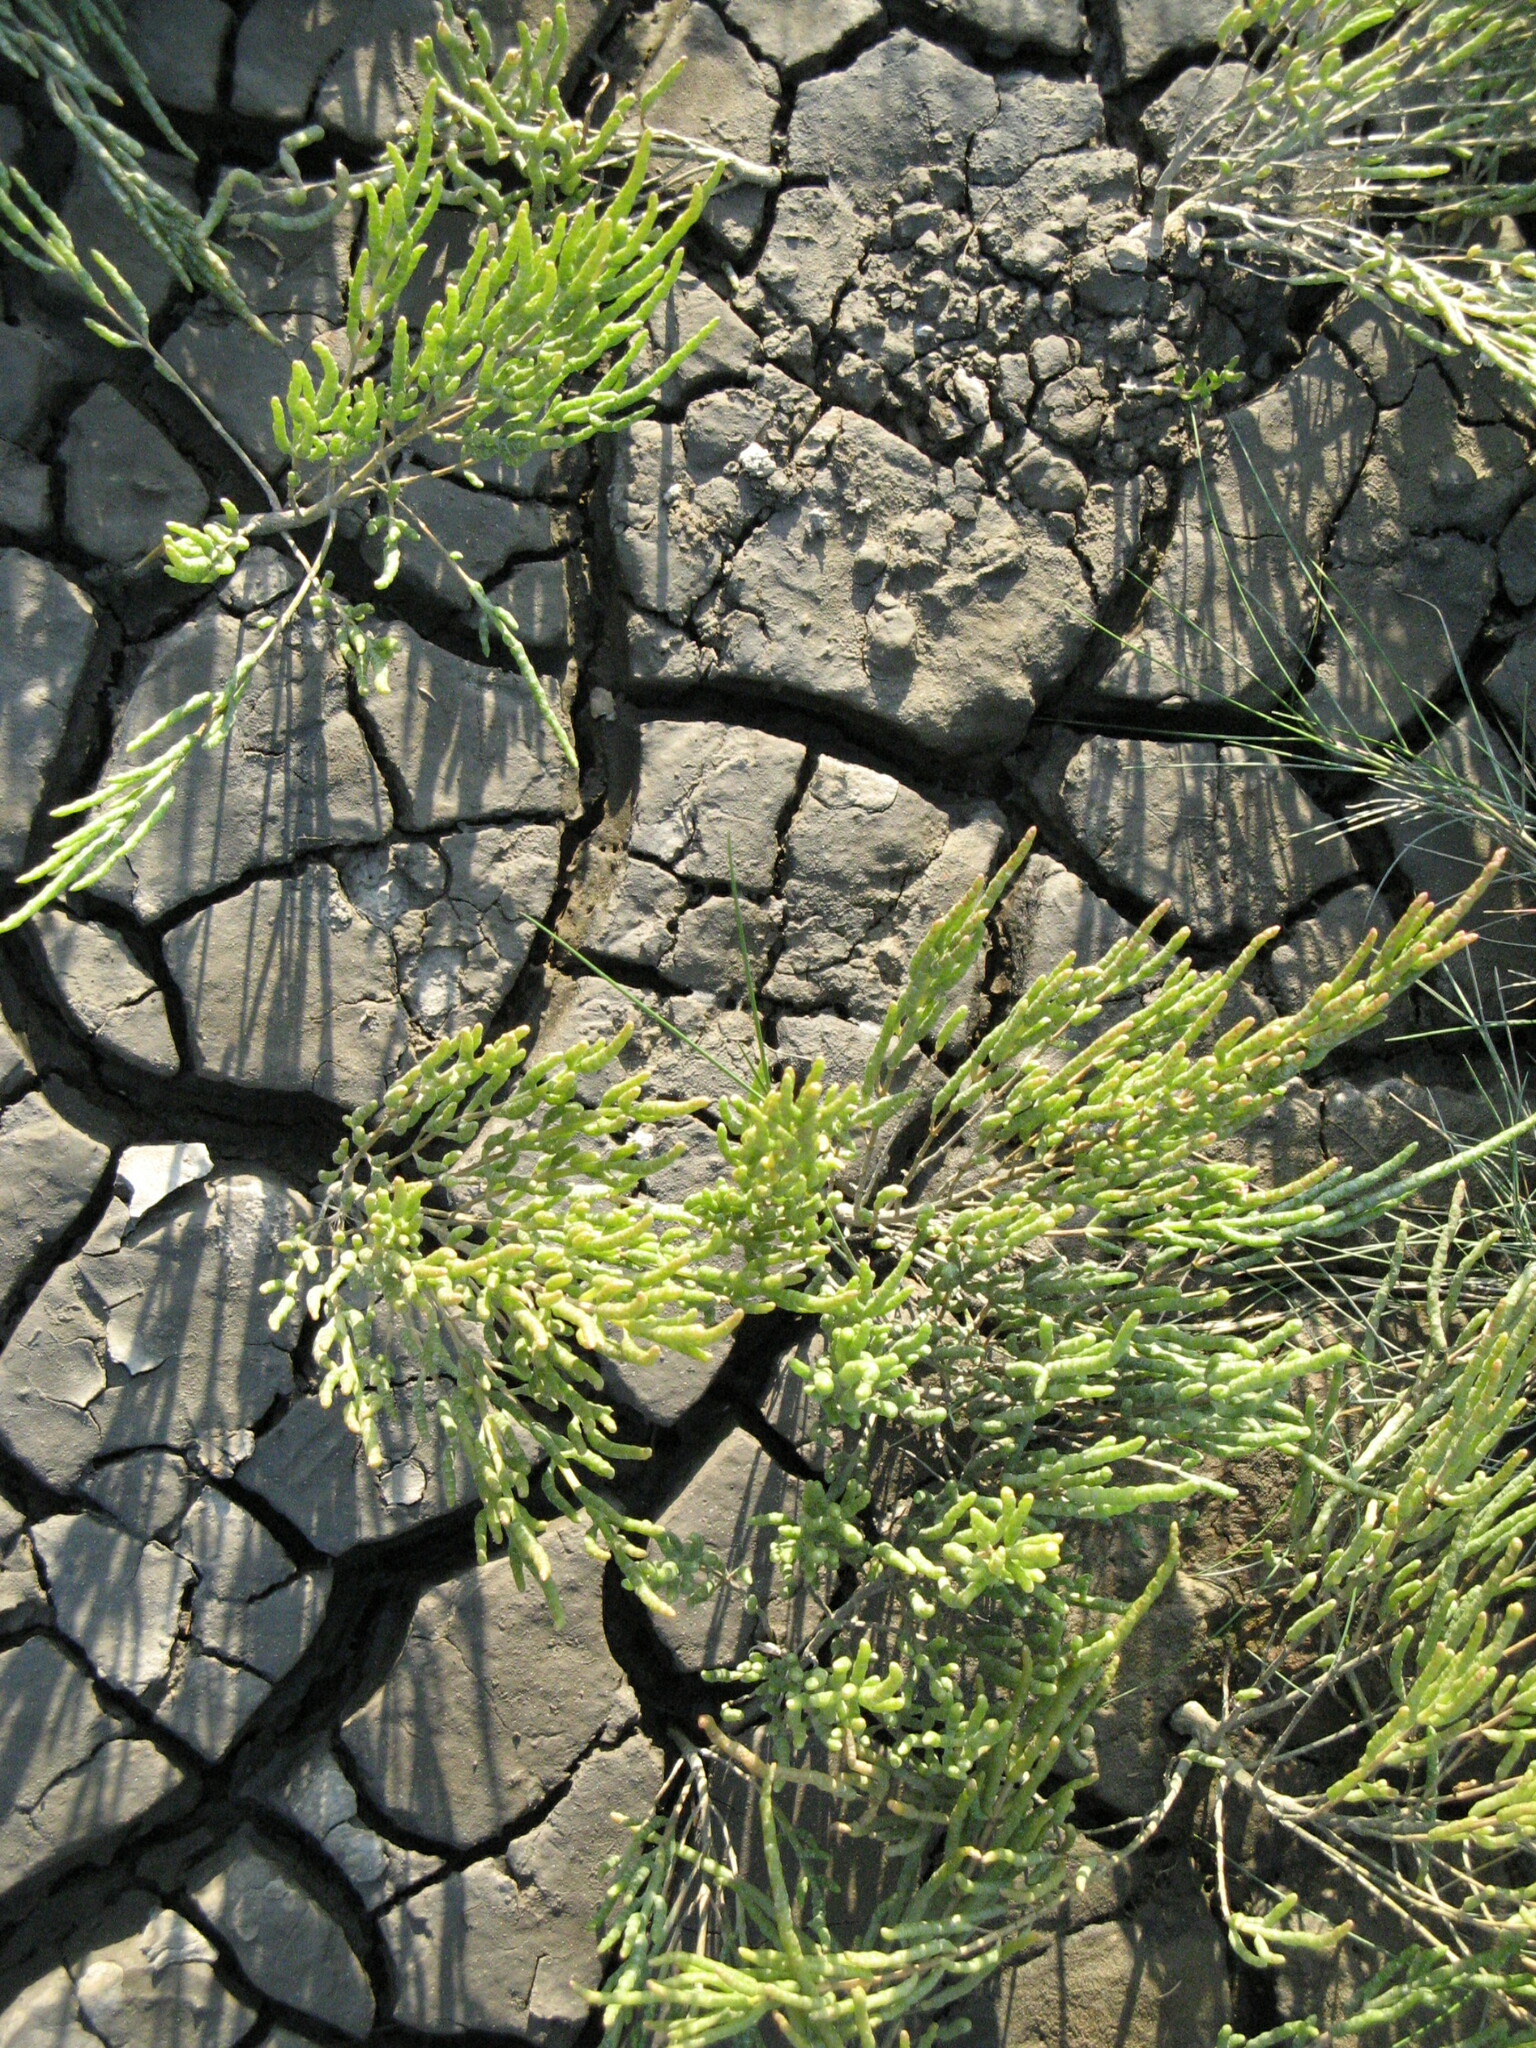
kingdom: Plantae
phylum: Tracheophyta
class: Magnoliopsida
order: Caryophyllales
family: Amaranthaceae
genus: Salicornia
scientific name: Salicornia europaea
